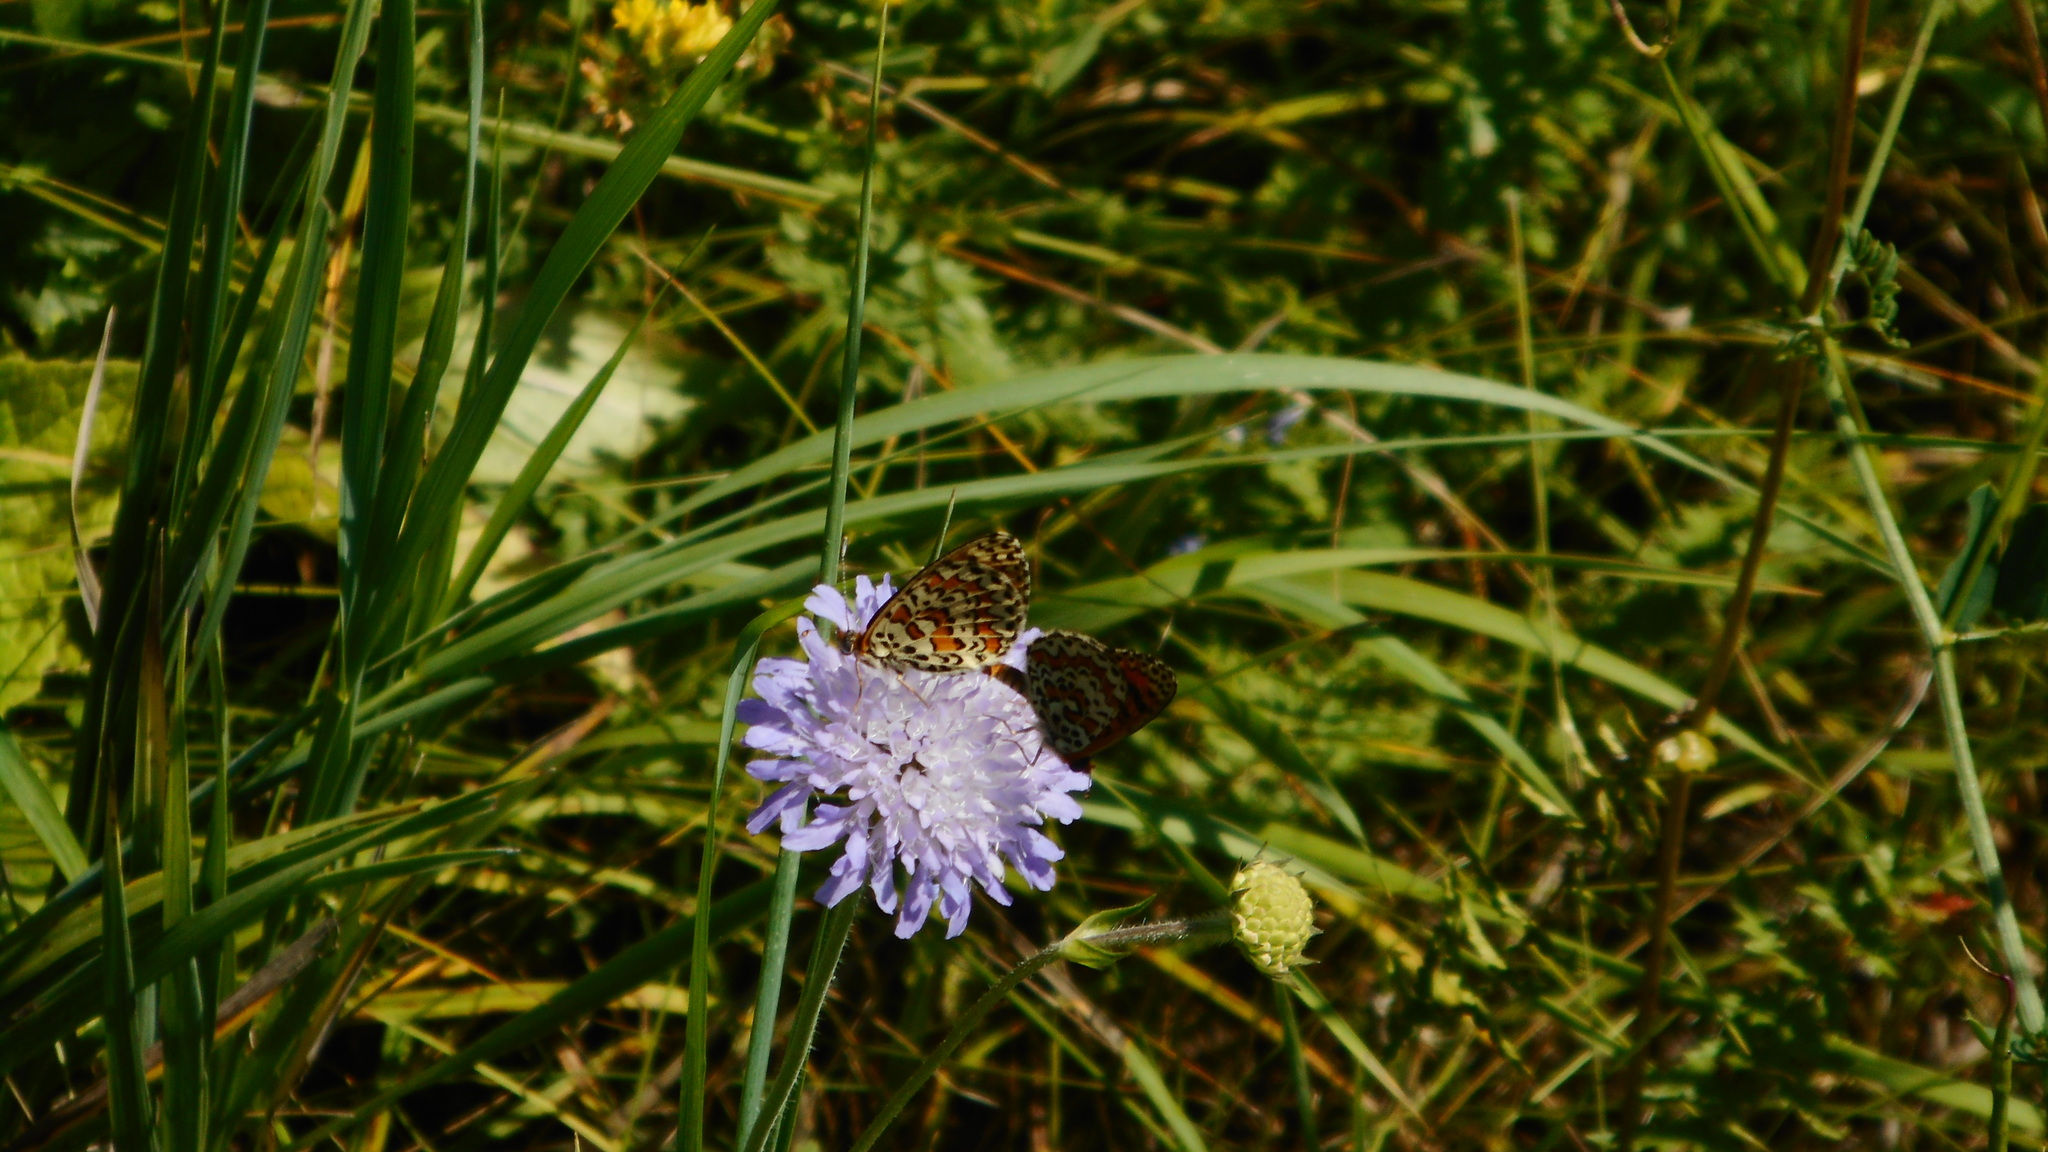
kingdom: Animalia
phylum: Arthropoda
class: Insecta
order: Lepidoptera
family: Nymphalidae
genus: Melitaea
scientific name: Melitaea didyma
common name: Spotted fritillary
